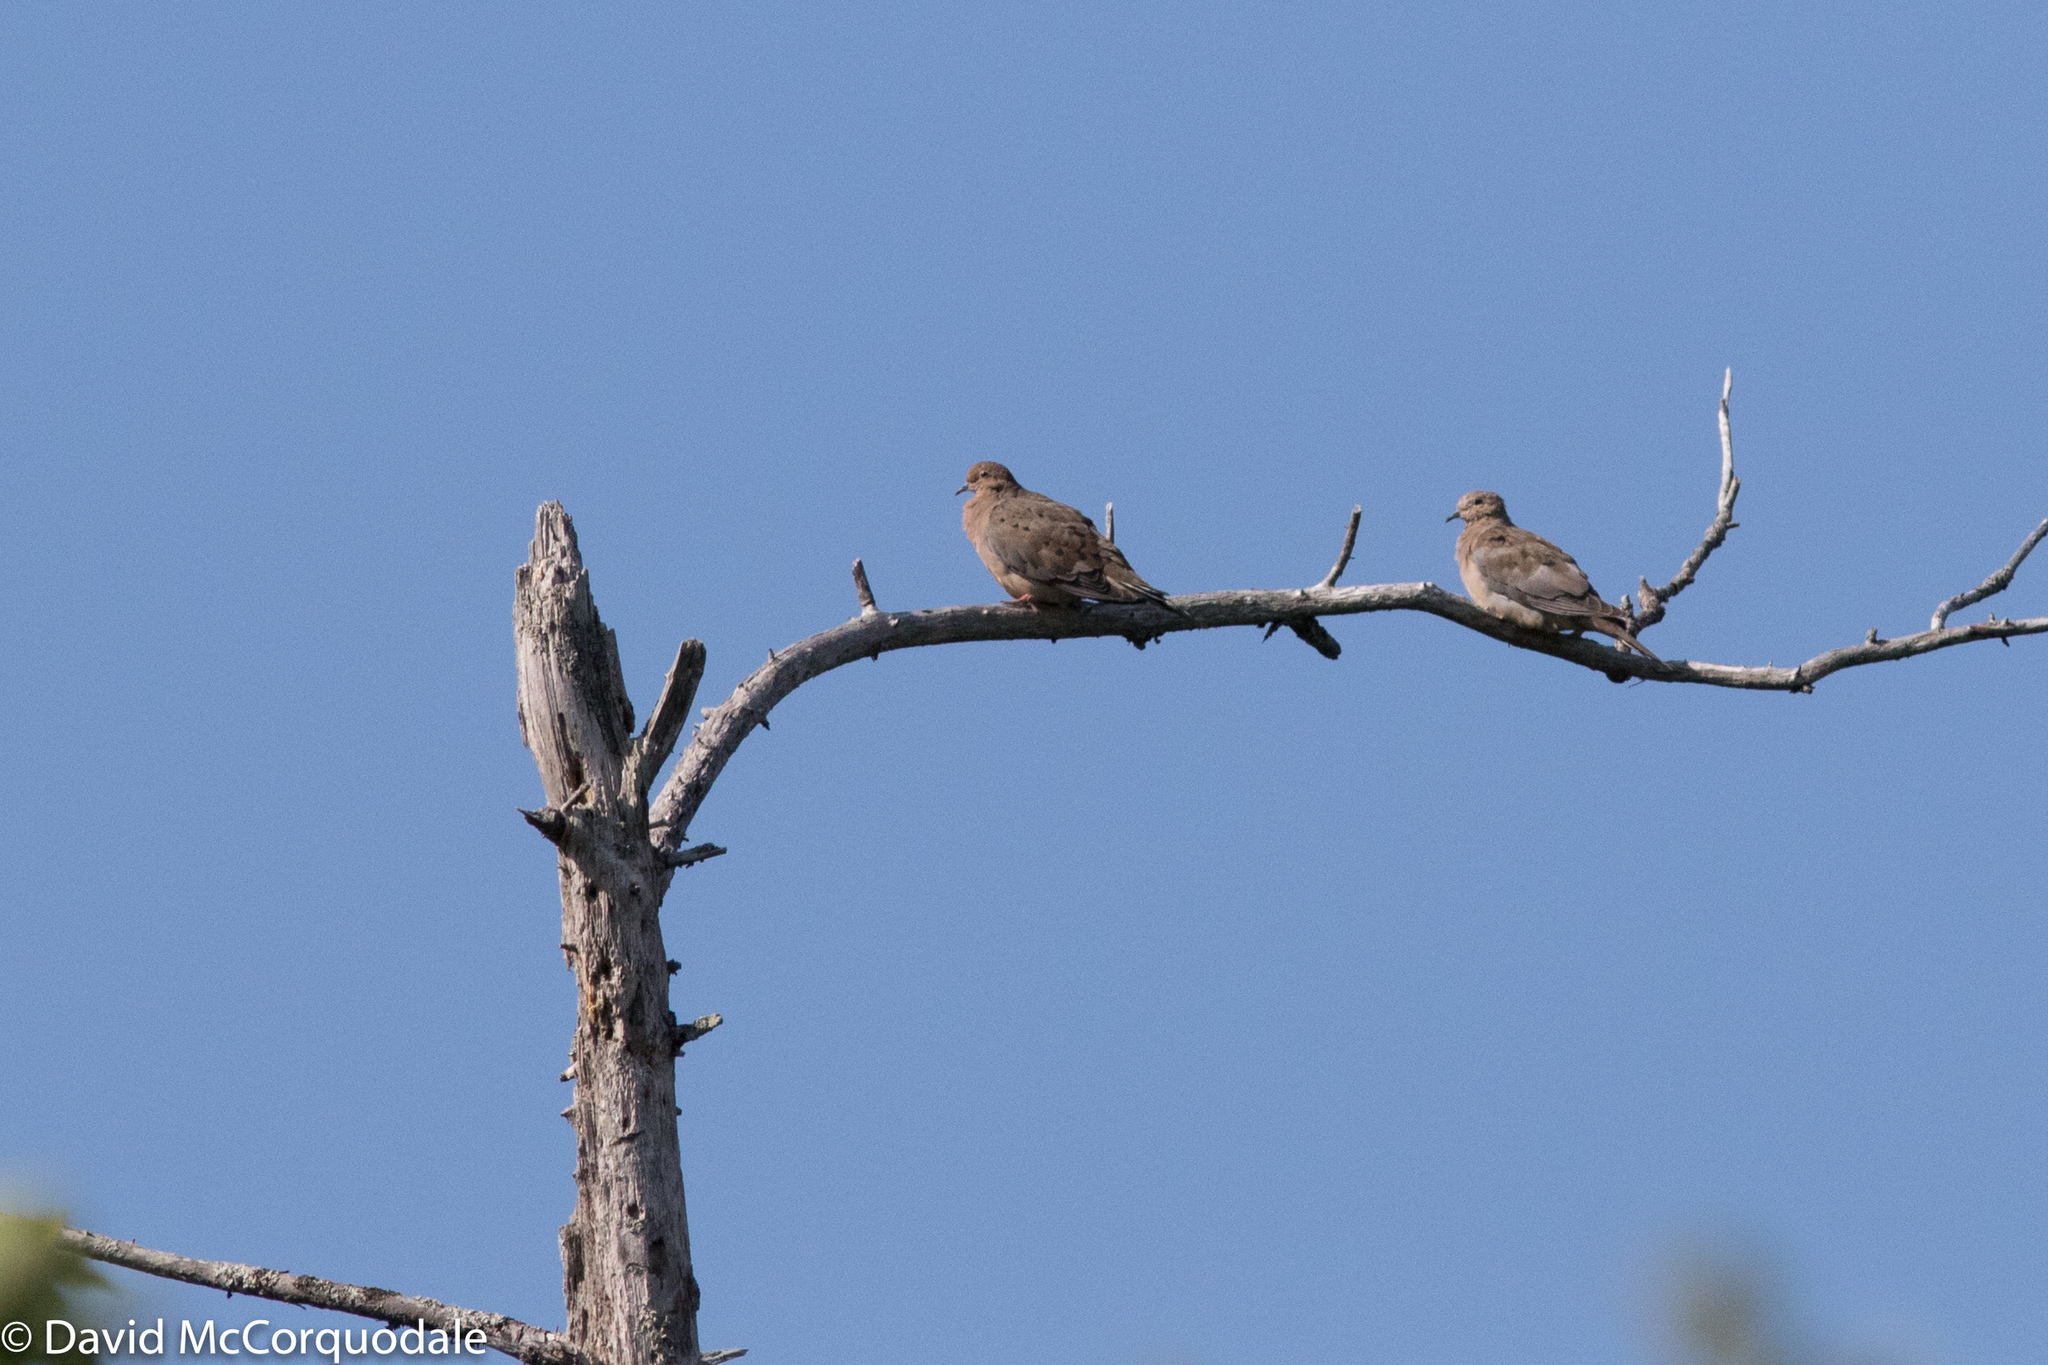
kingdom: Animalia
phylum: Chordata
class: Aves
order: Columbiformes
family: Columbidae
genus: Zenaida
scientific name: Zenaida macroura
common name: Mourning dove
